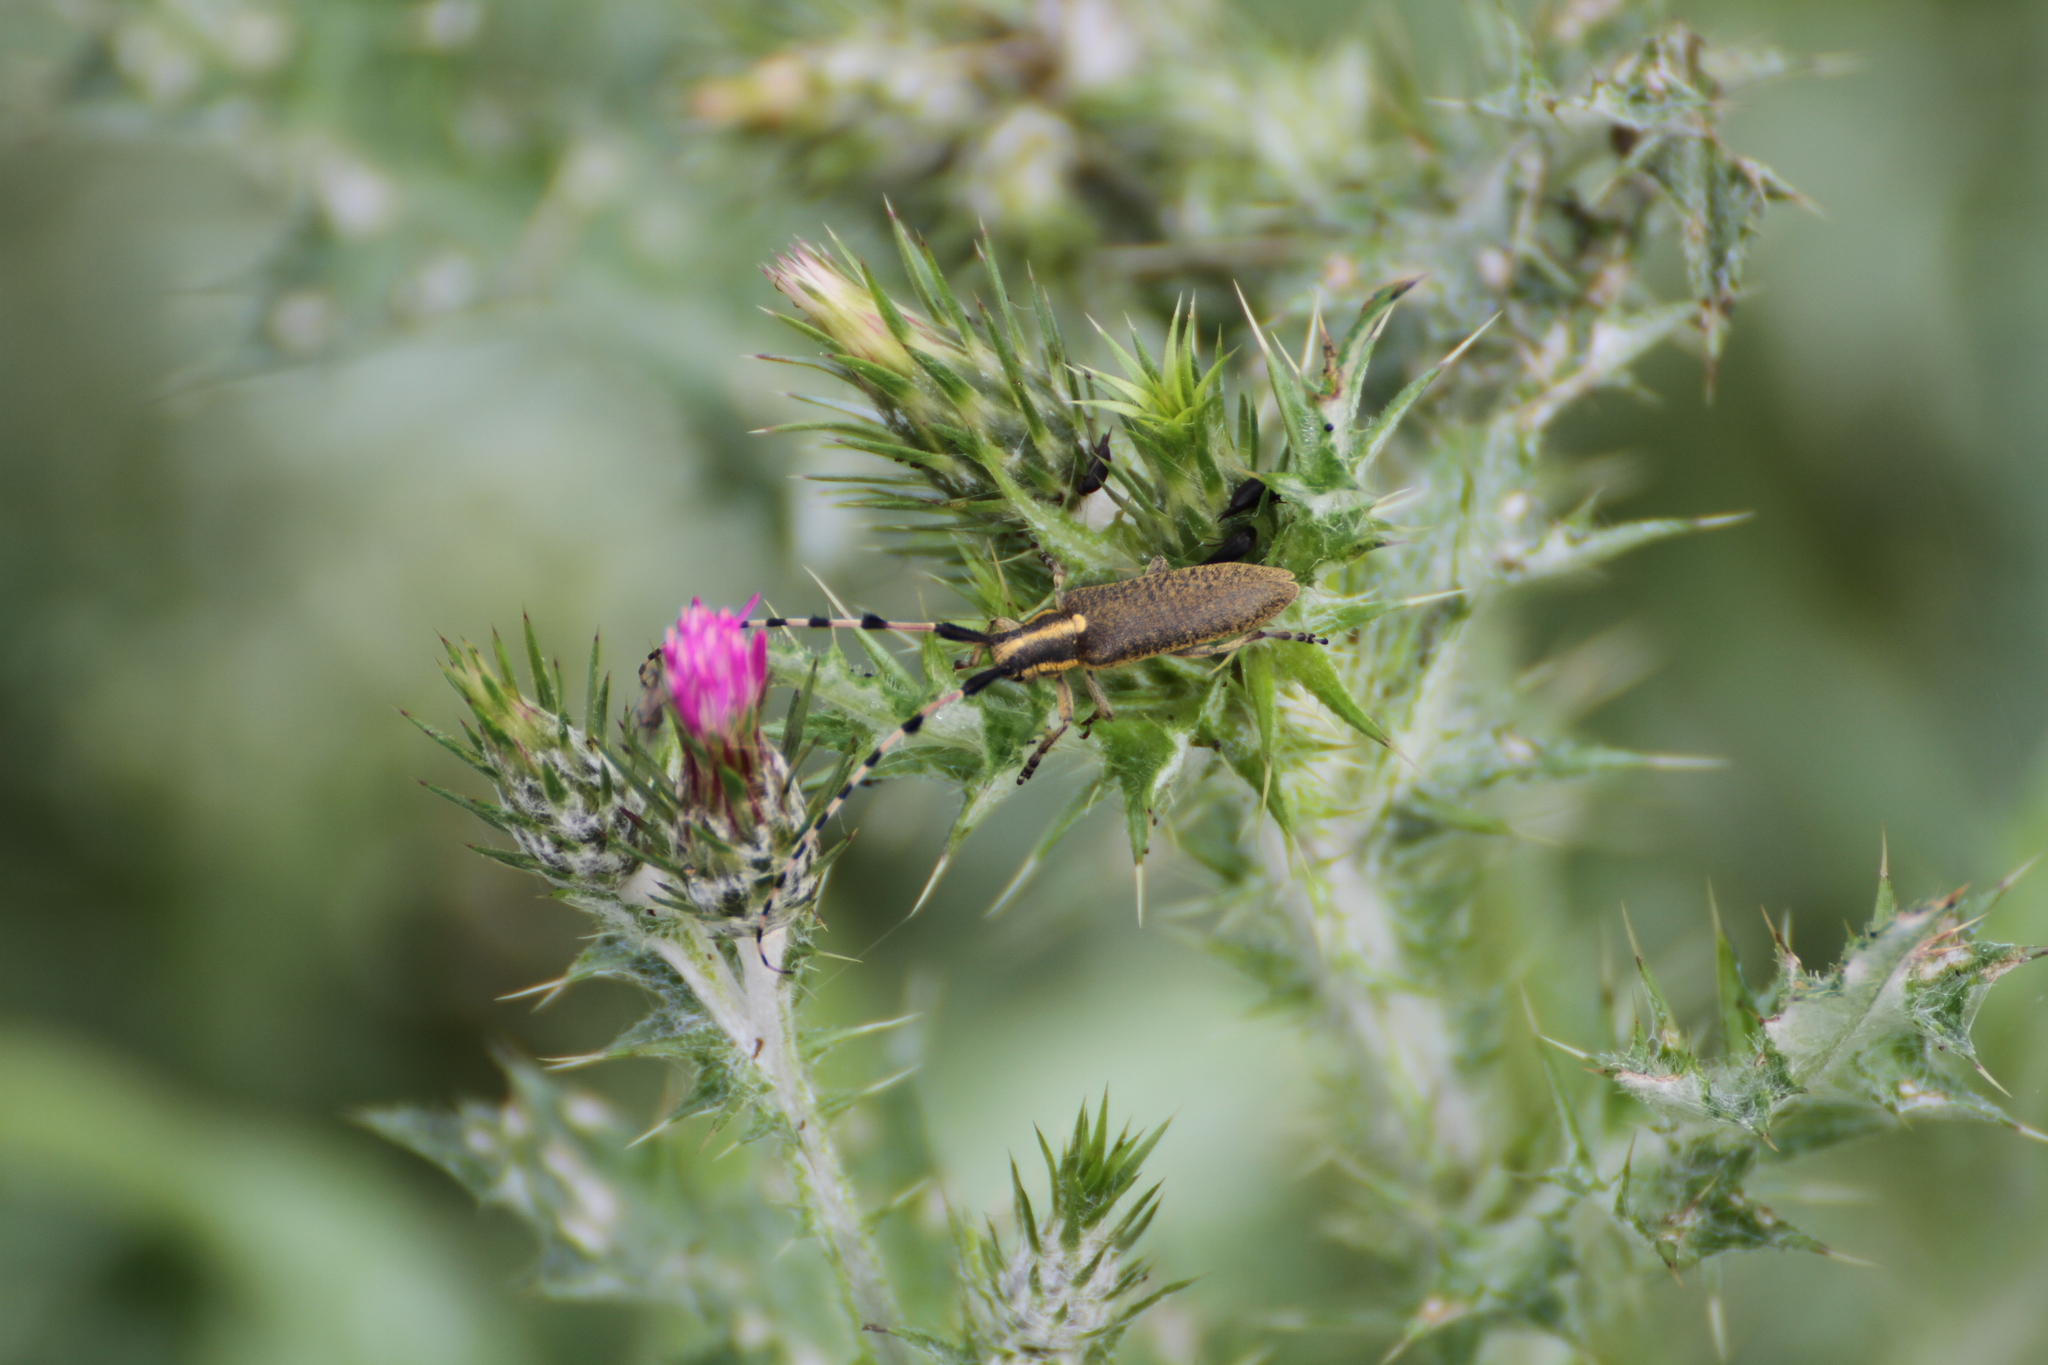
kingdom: Animalia
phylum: Arthropoda
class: Insecta
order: Coleoptera
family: Cerambycidae
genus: Agapanthia
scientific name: Agapanthia dahlii
